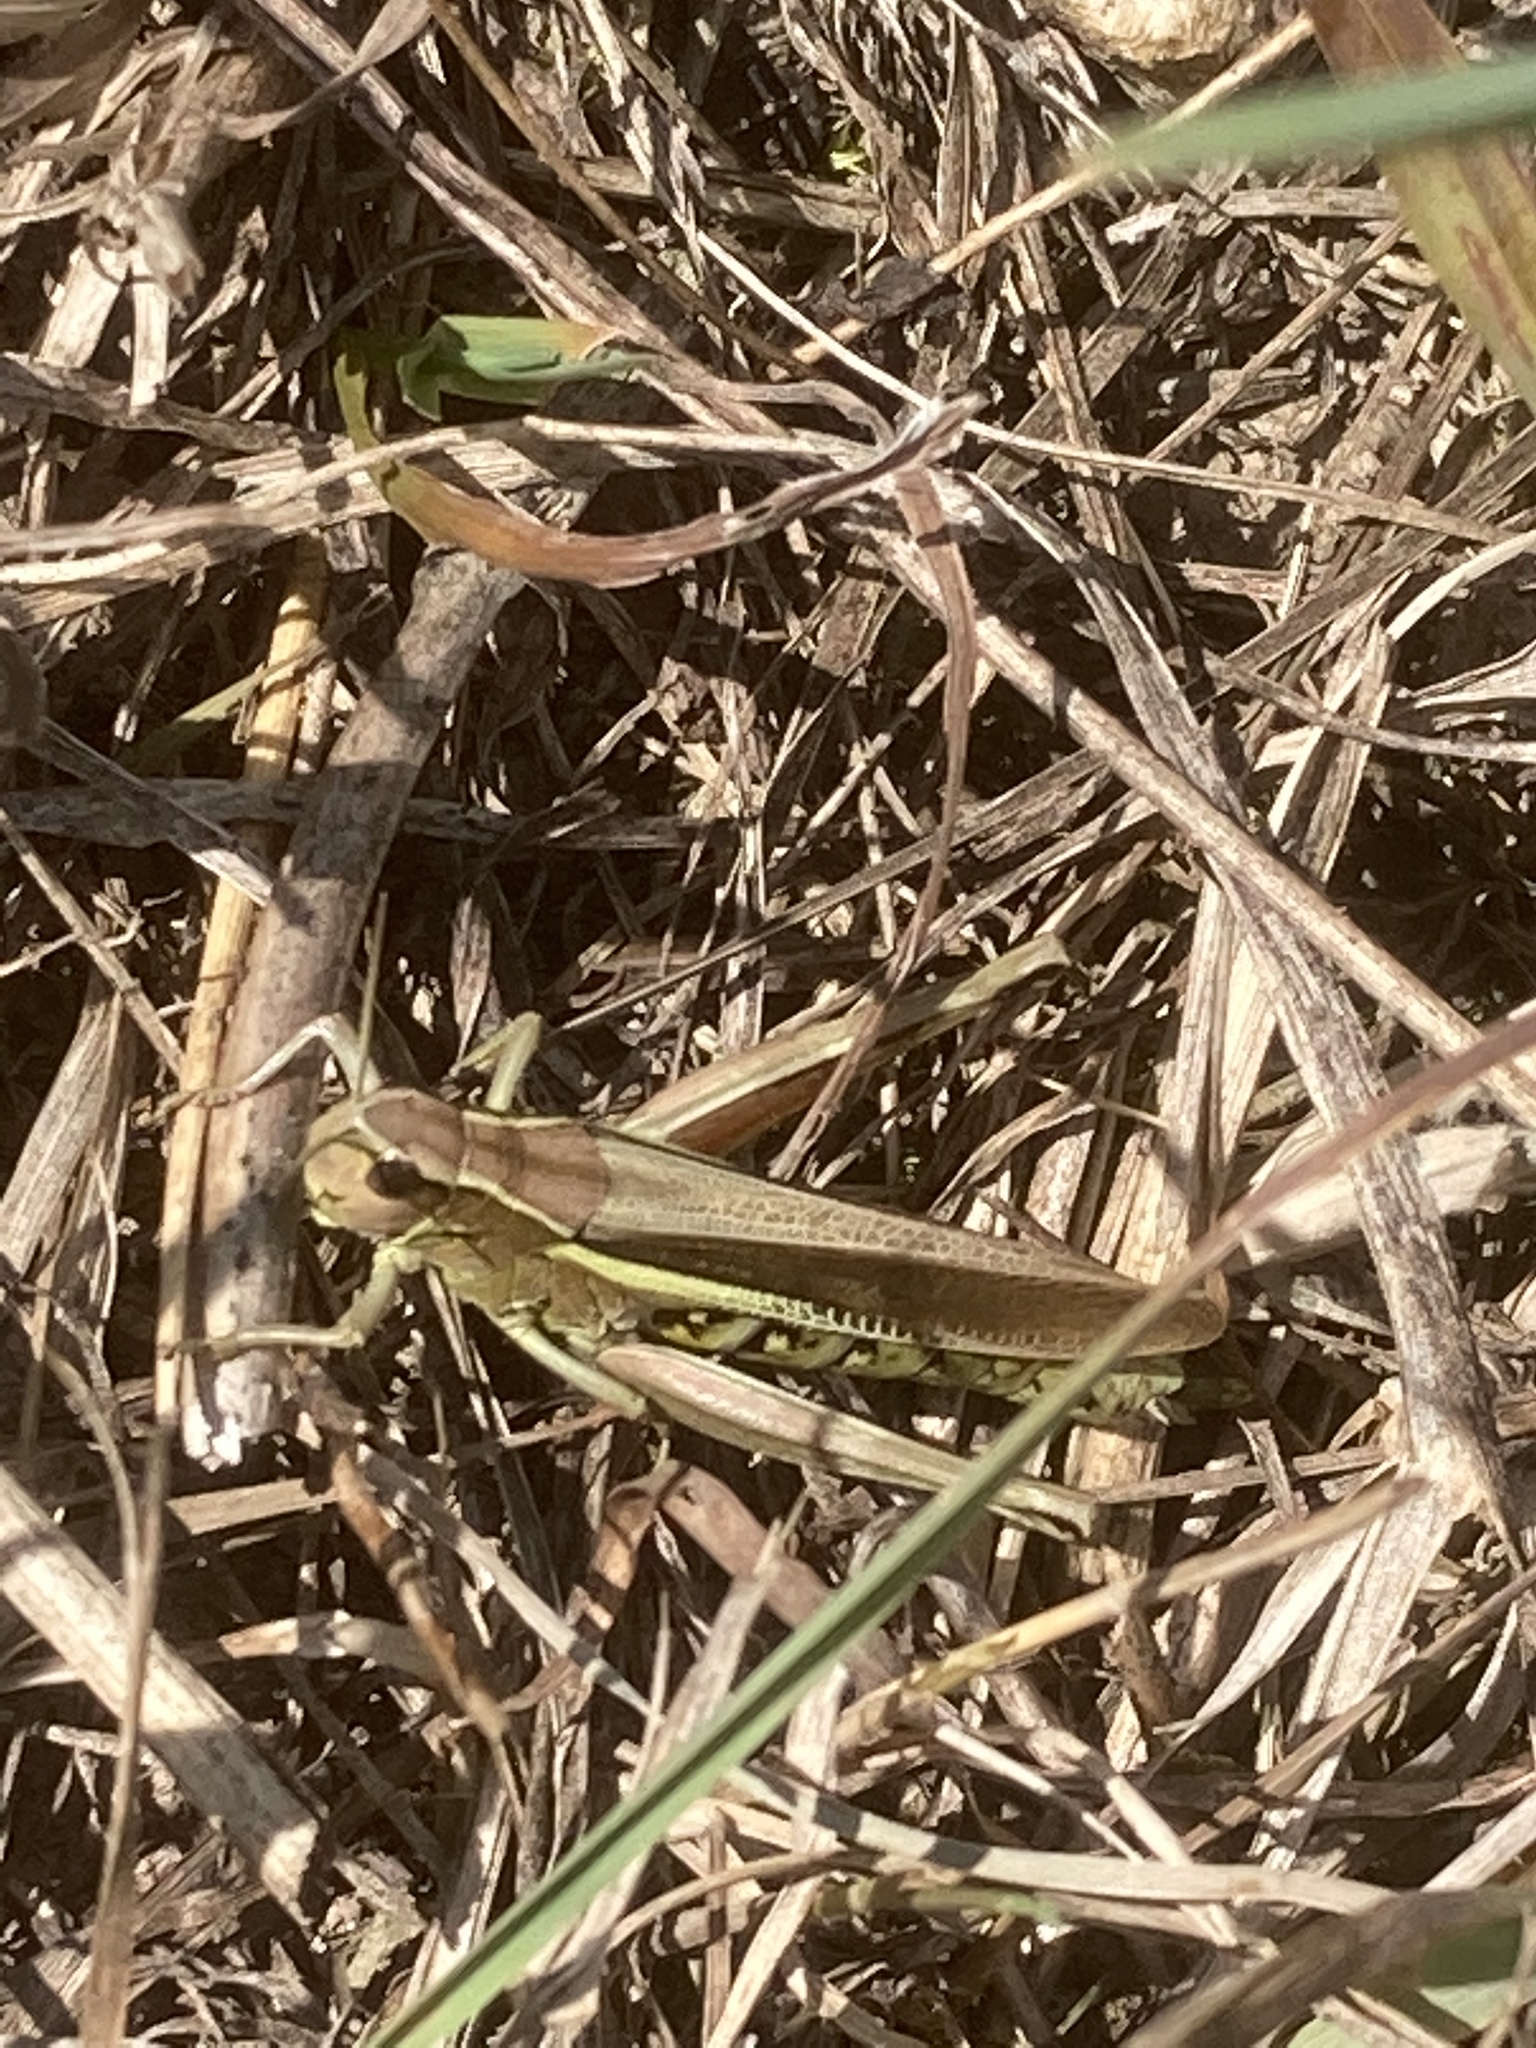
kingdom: Animalia
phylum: Arthropoda
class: Insecta
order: Orthoptera
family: Acrididae
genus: Stethophyma
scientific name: Stethophyma grossum
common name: Large marsh grasshopper
